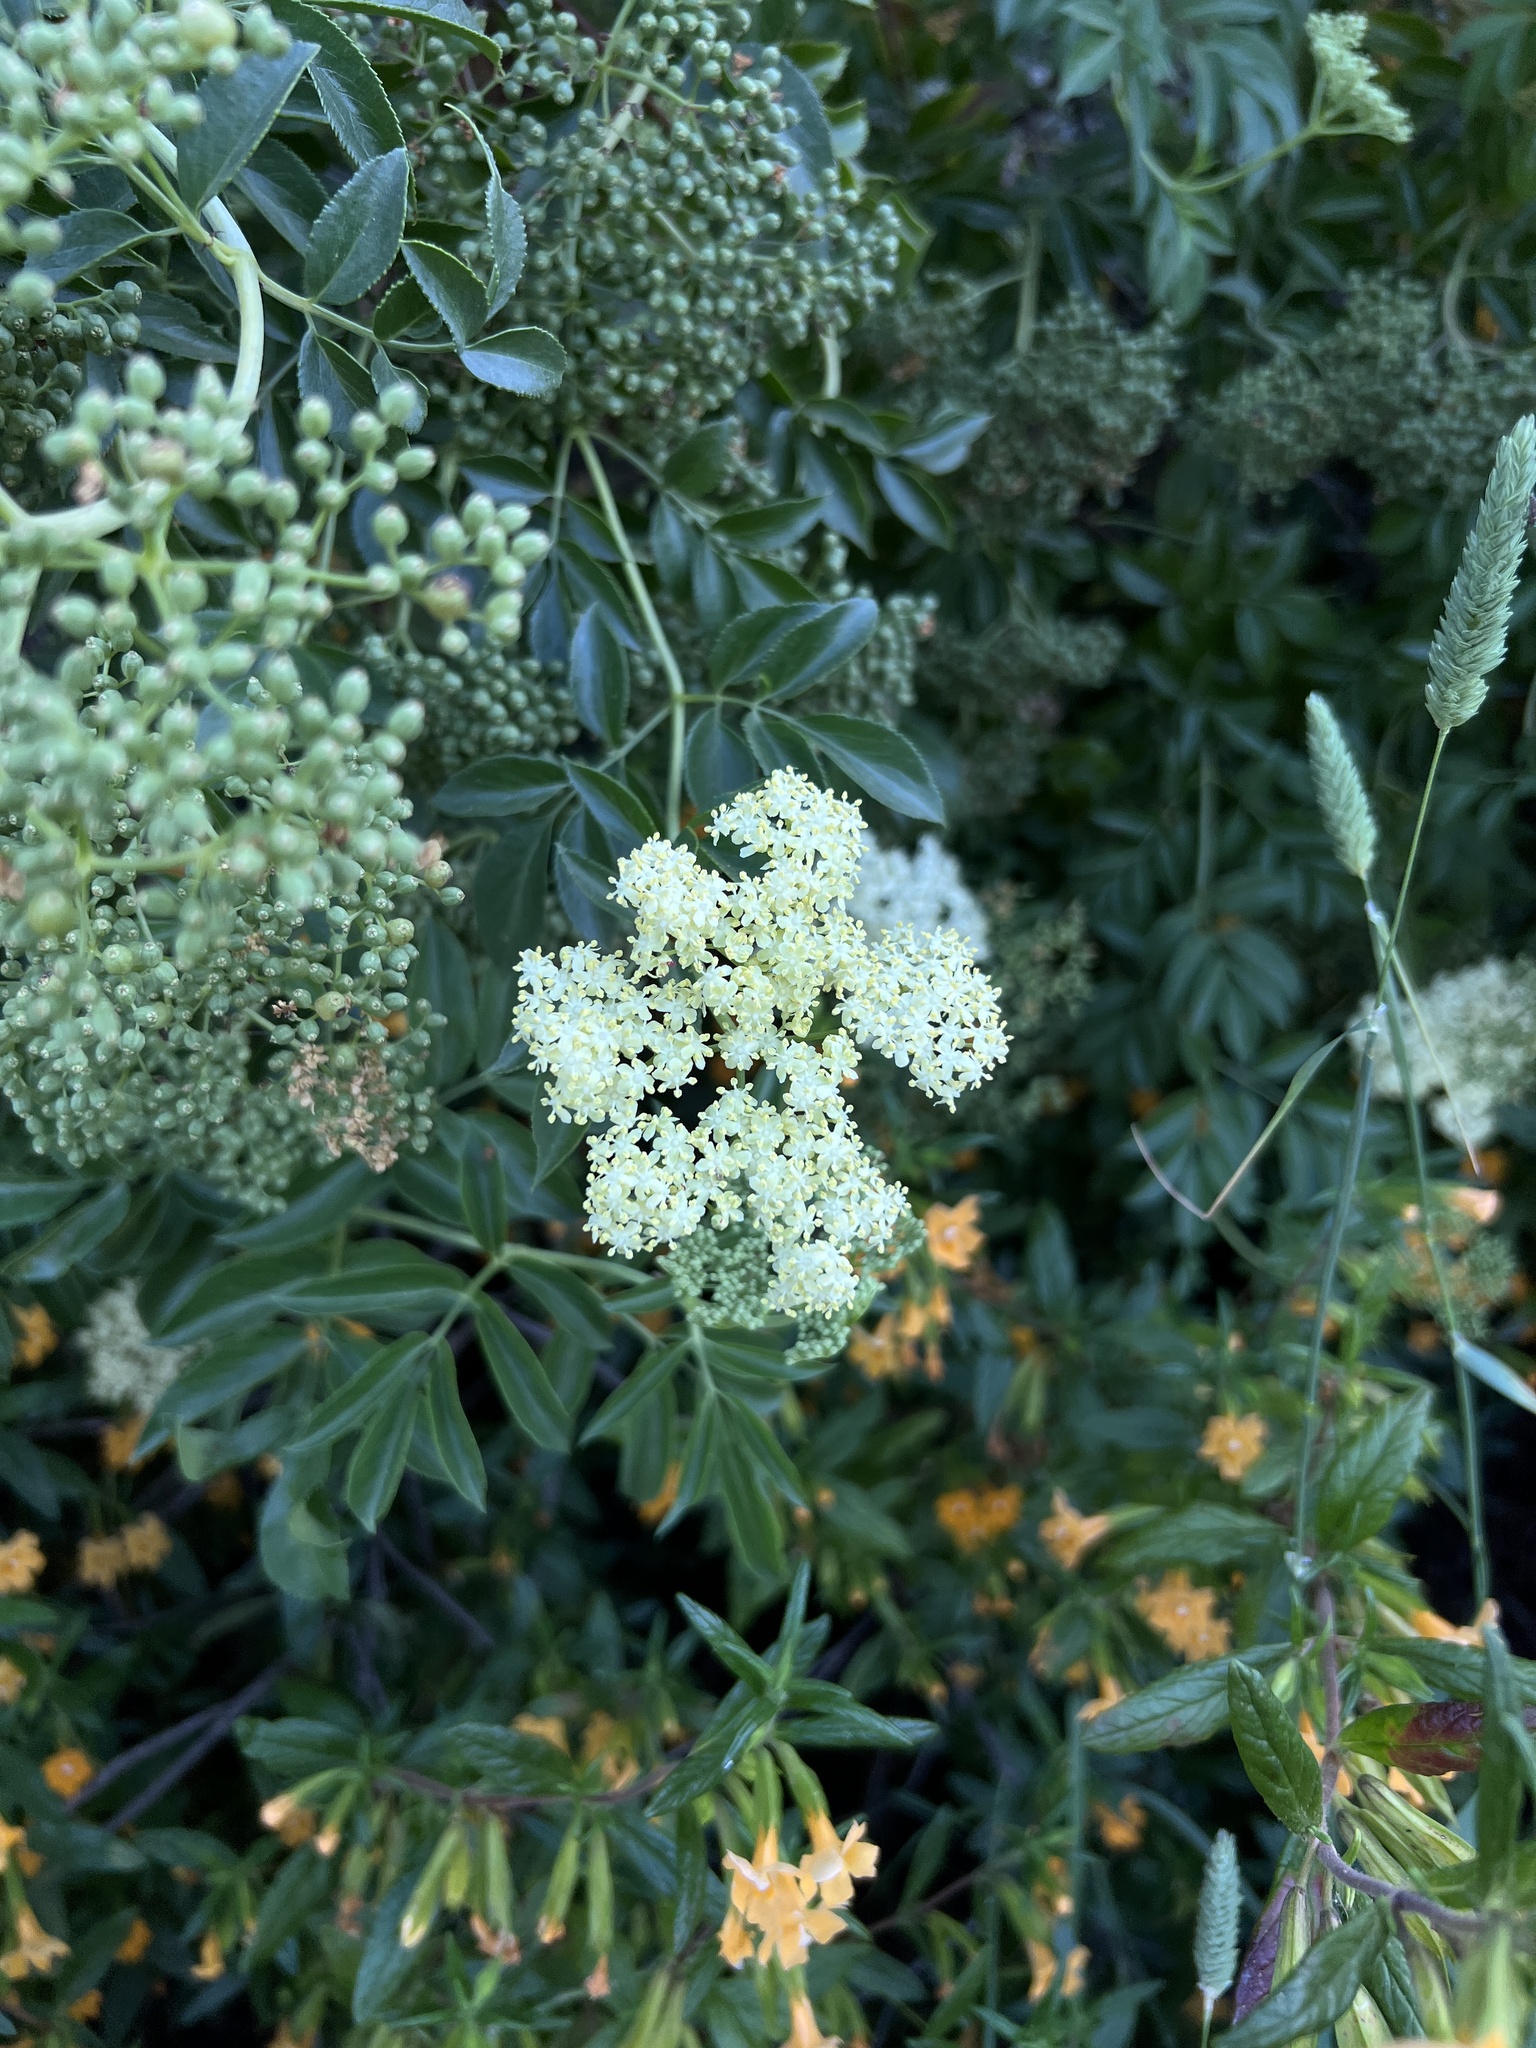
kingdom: Plantae
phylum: Tracheophyta
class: Magnoliopsida
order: Dipsacales
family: Viburnaceae
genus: Sambucus
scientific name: Sambucus cerulea
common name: Blue elder
